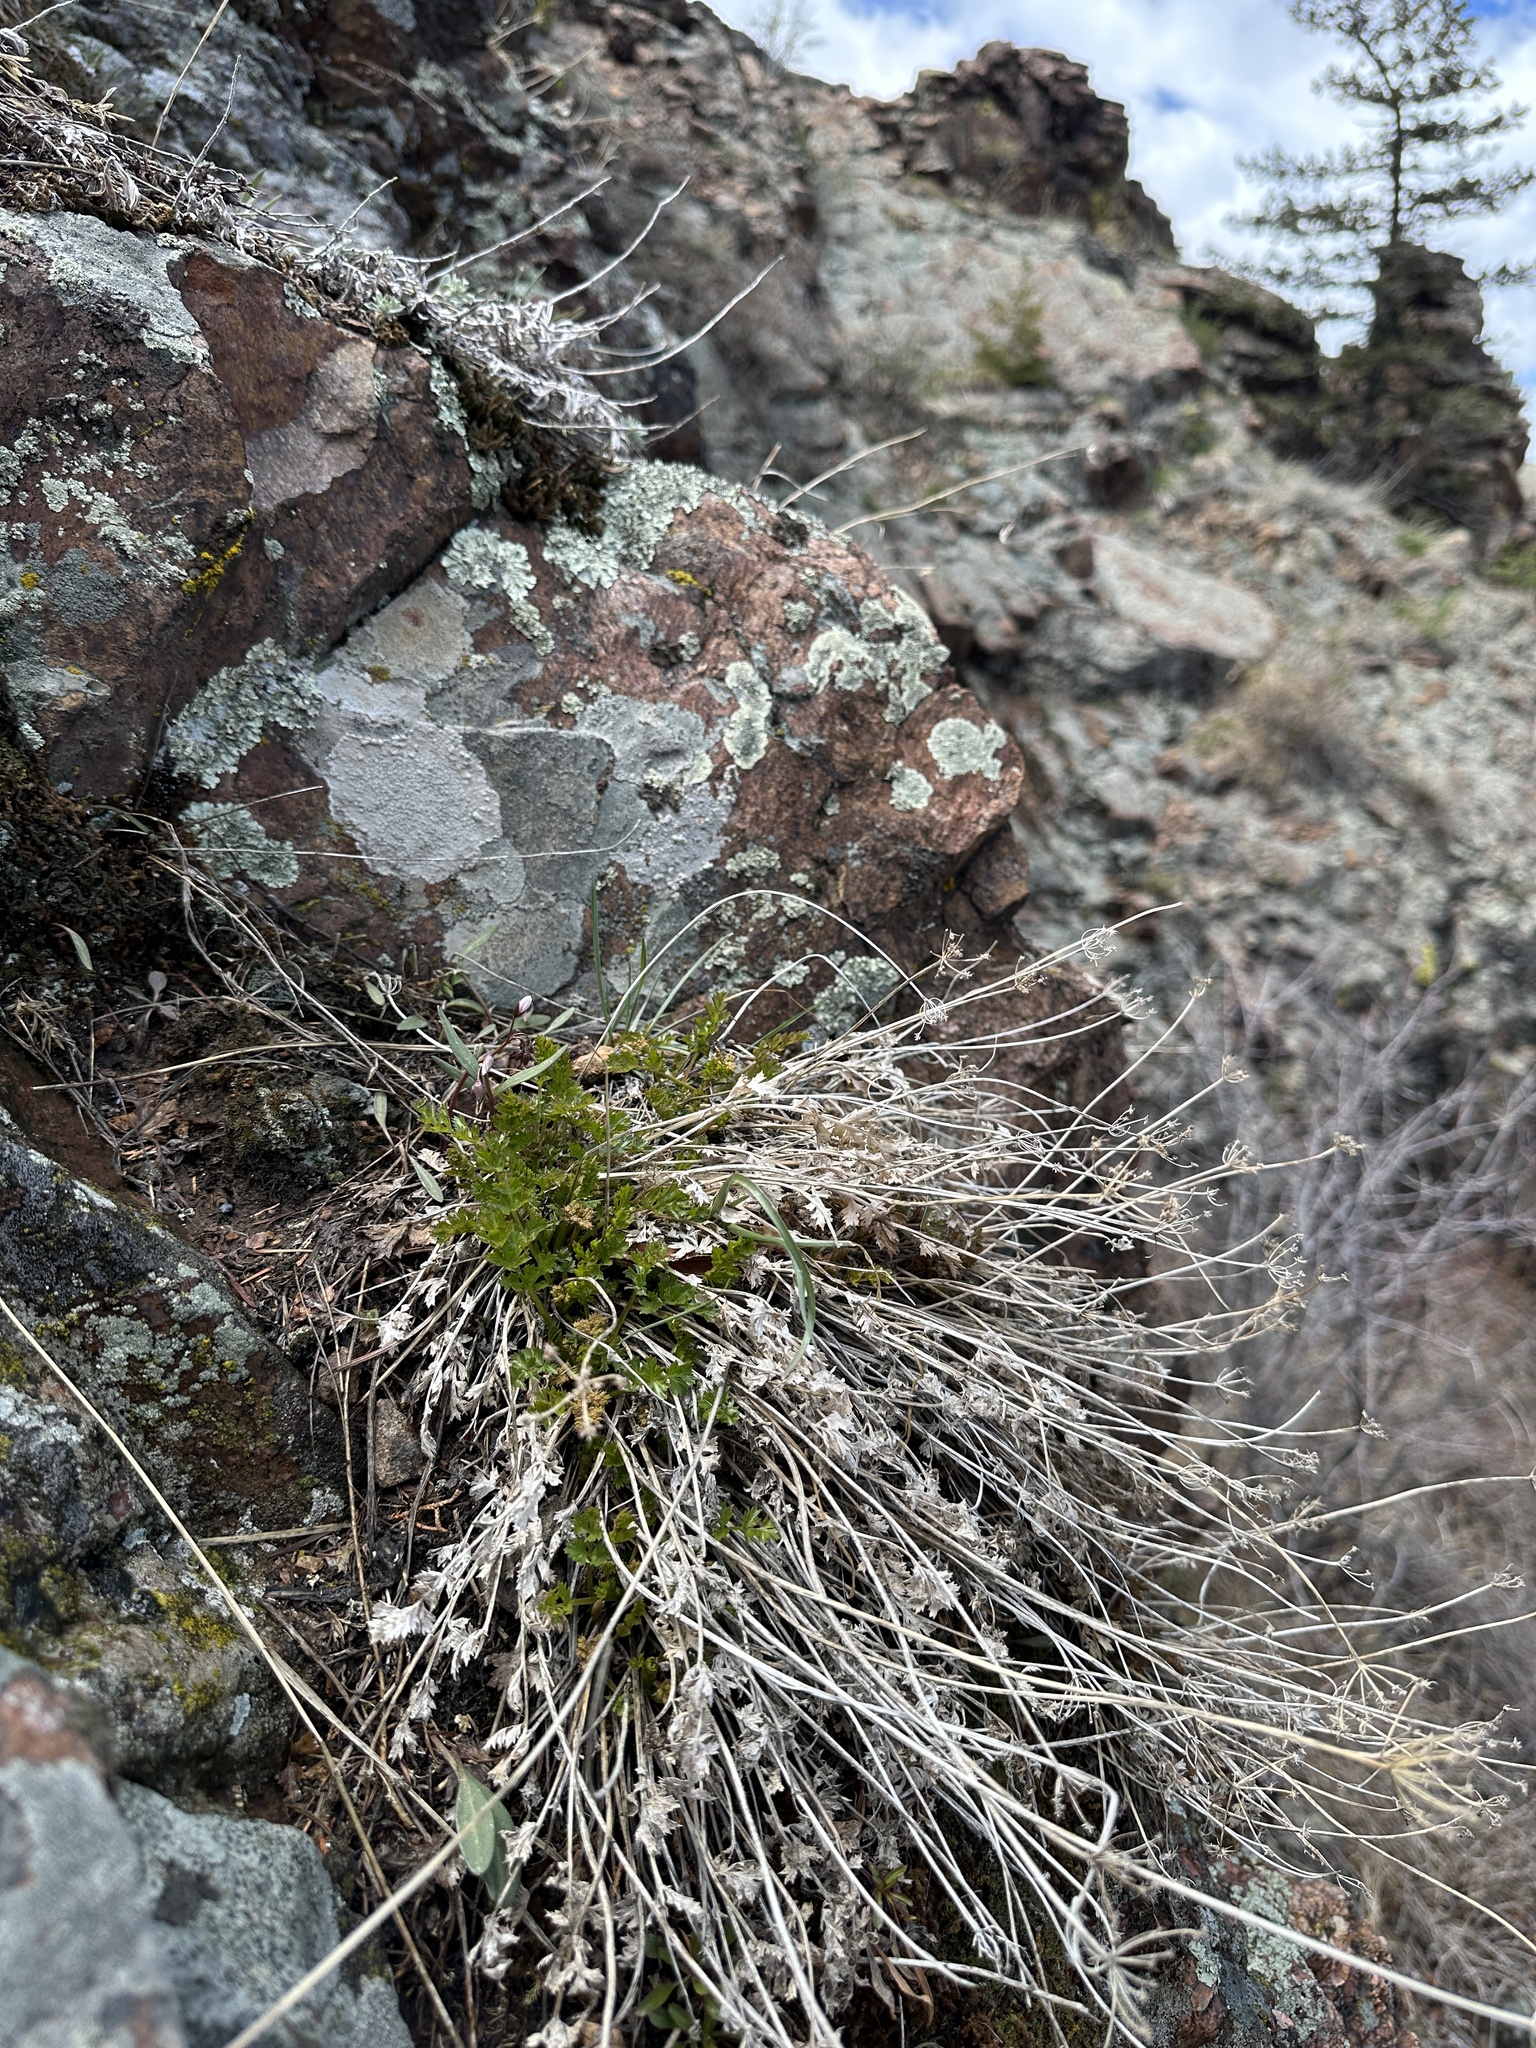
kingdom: Plantae
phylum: Tracheophyta
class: Magnoliopsida
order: Apiales
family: Apiaceae
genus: Cymopterus
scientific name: Cymopterus hallii
